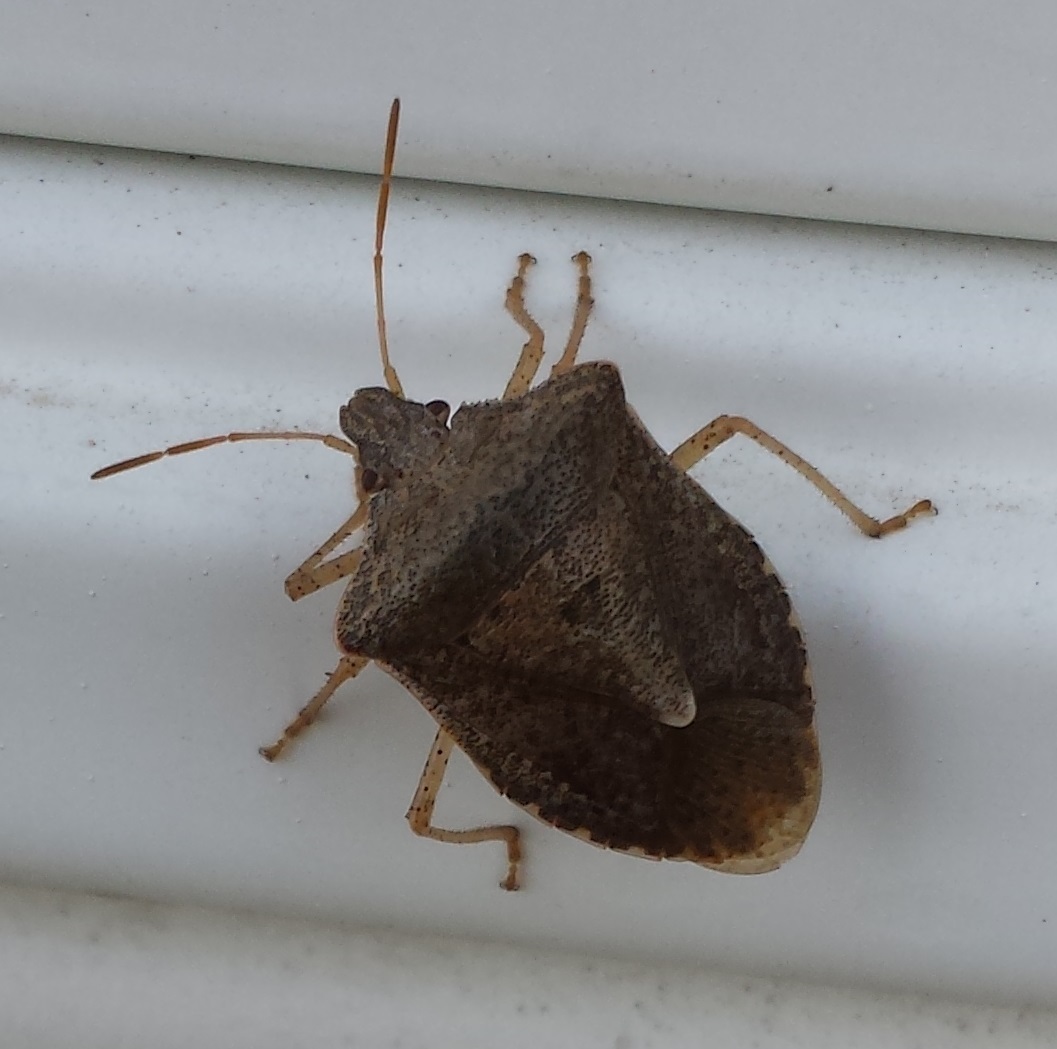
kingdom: Animalia
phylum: Arthropoda
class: Insecta
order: Hemiptera
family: Pentatomidae
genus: Euschistus
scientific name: Euschistus servus
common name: Brown stink bug
